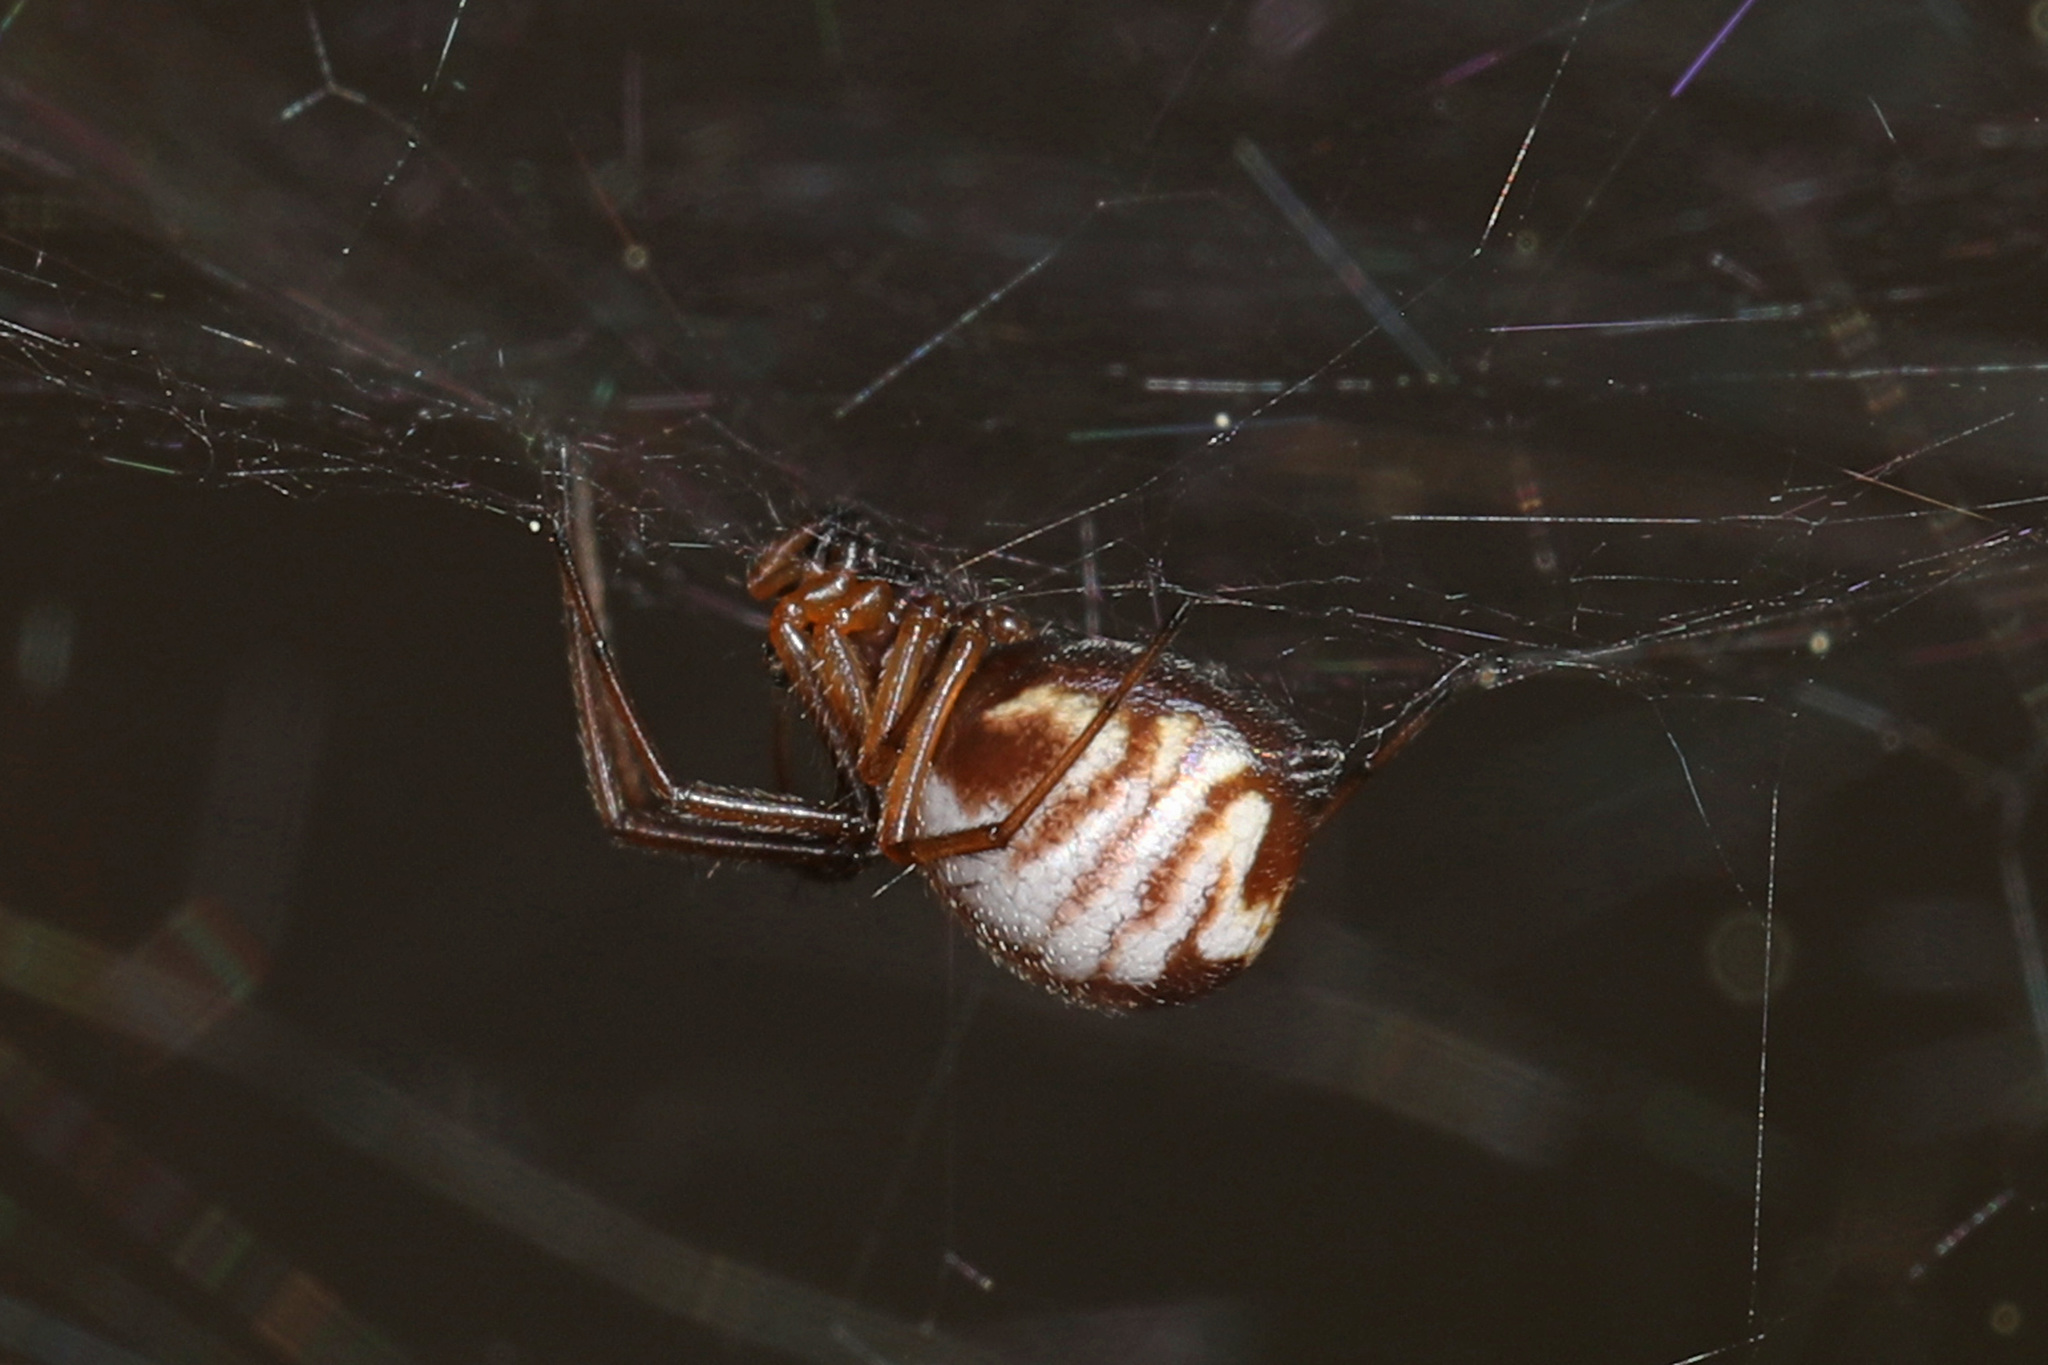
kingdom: Animalia
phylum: Arthropoda
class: Arachnida
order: Araneae
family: Linyphiidae
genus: Frontinella
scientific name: Frontinella pyramitela
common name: Bowl-and-doily spider
